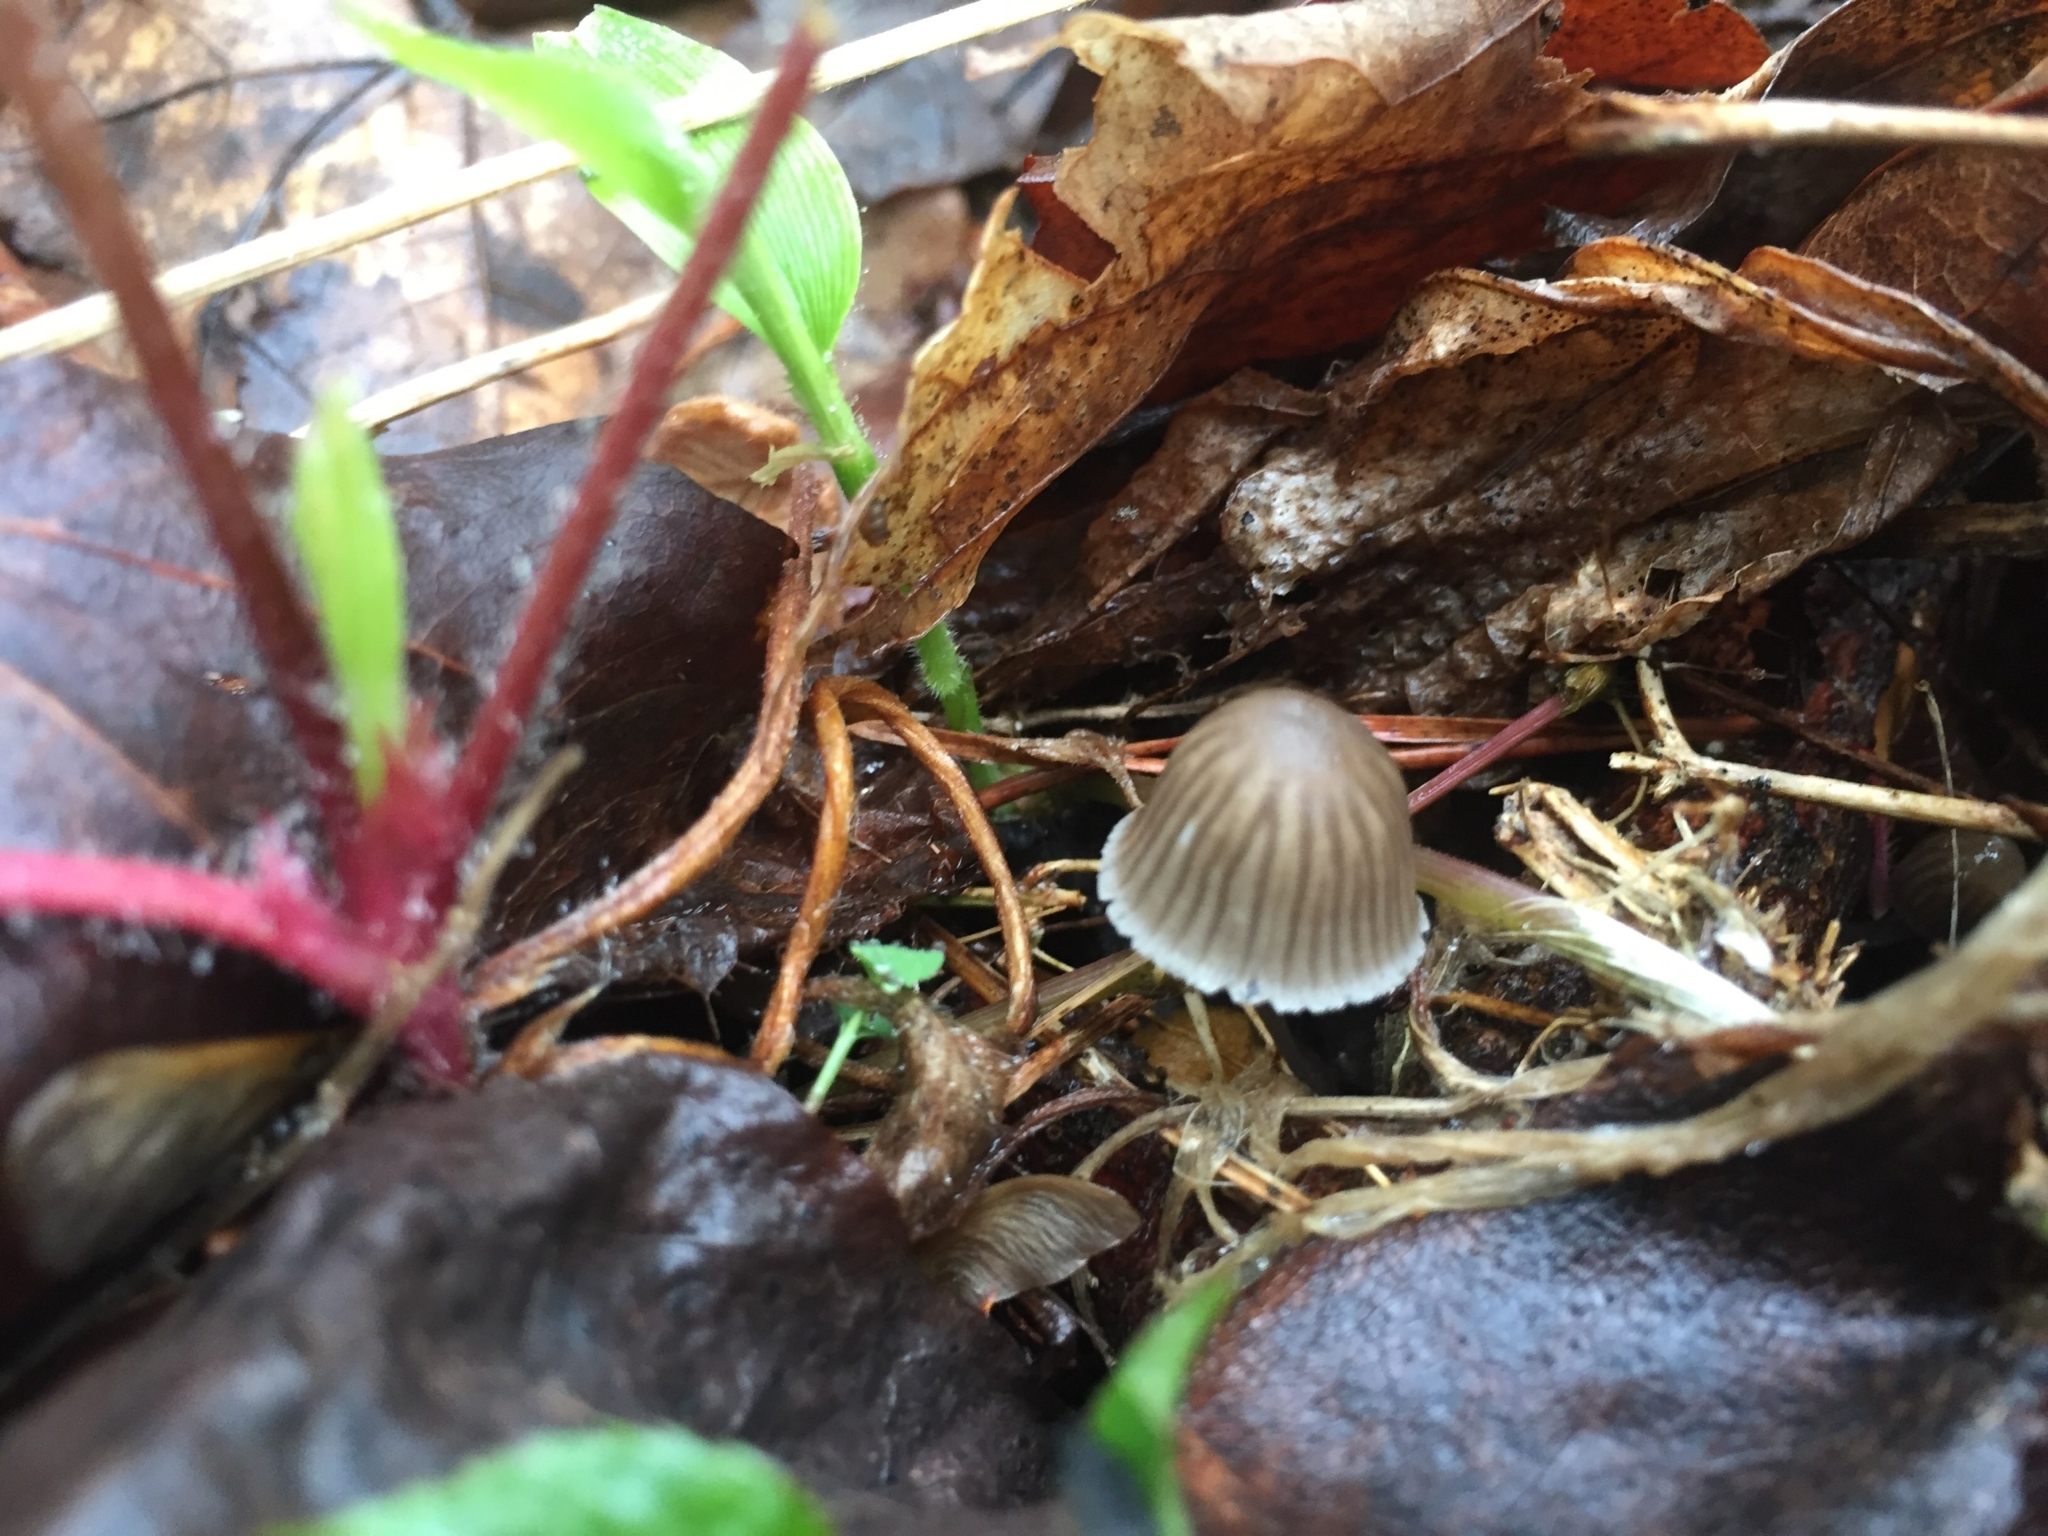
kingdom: Fungi
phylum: Basidiomycota
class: Agaricomycetes
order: Agaricales
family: Mycenaceae
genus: Mycena
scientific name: Mycena leptocephala
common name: Nitrous bonnet
